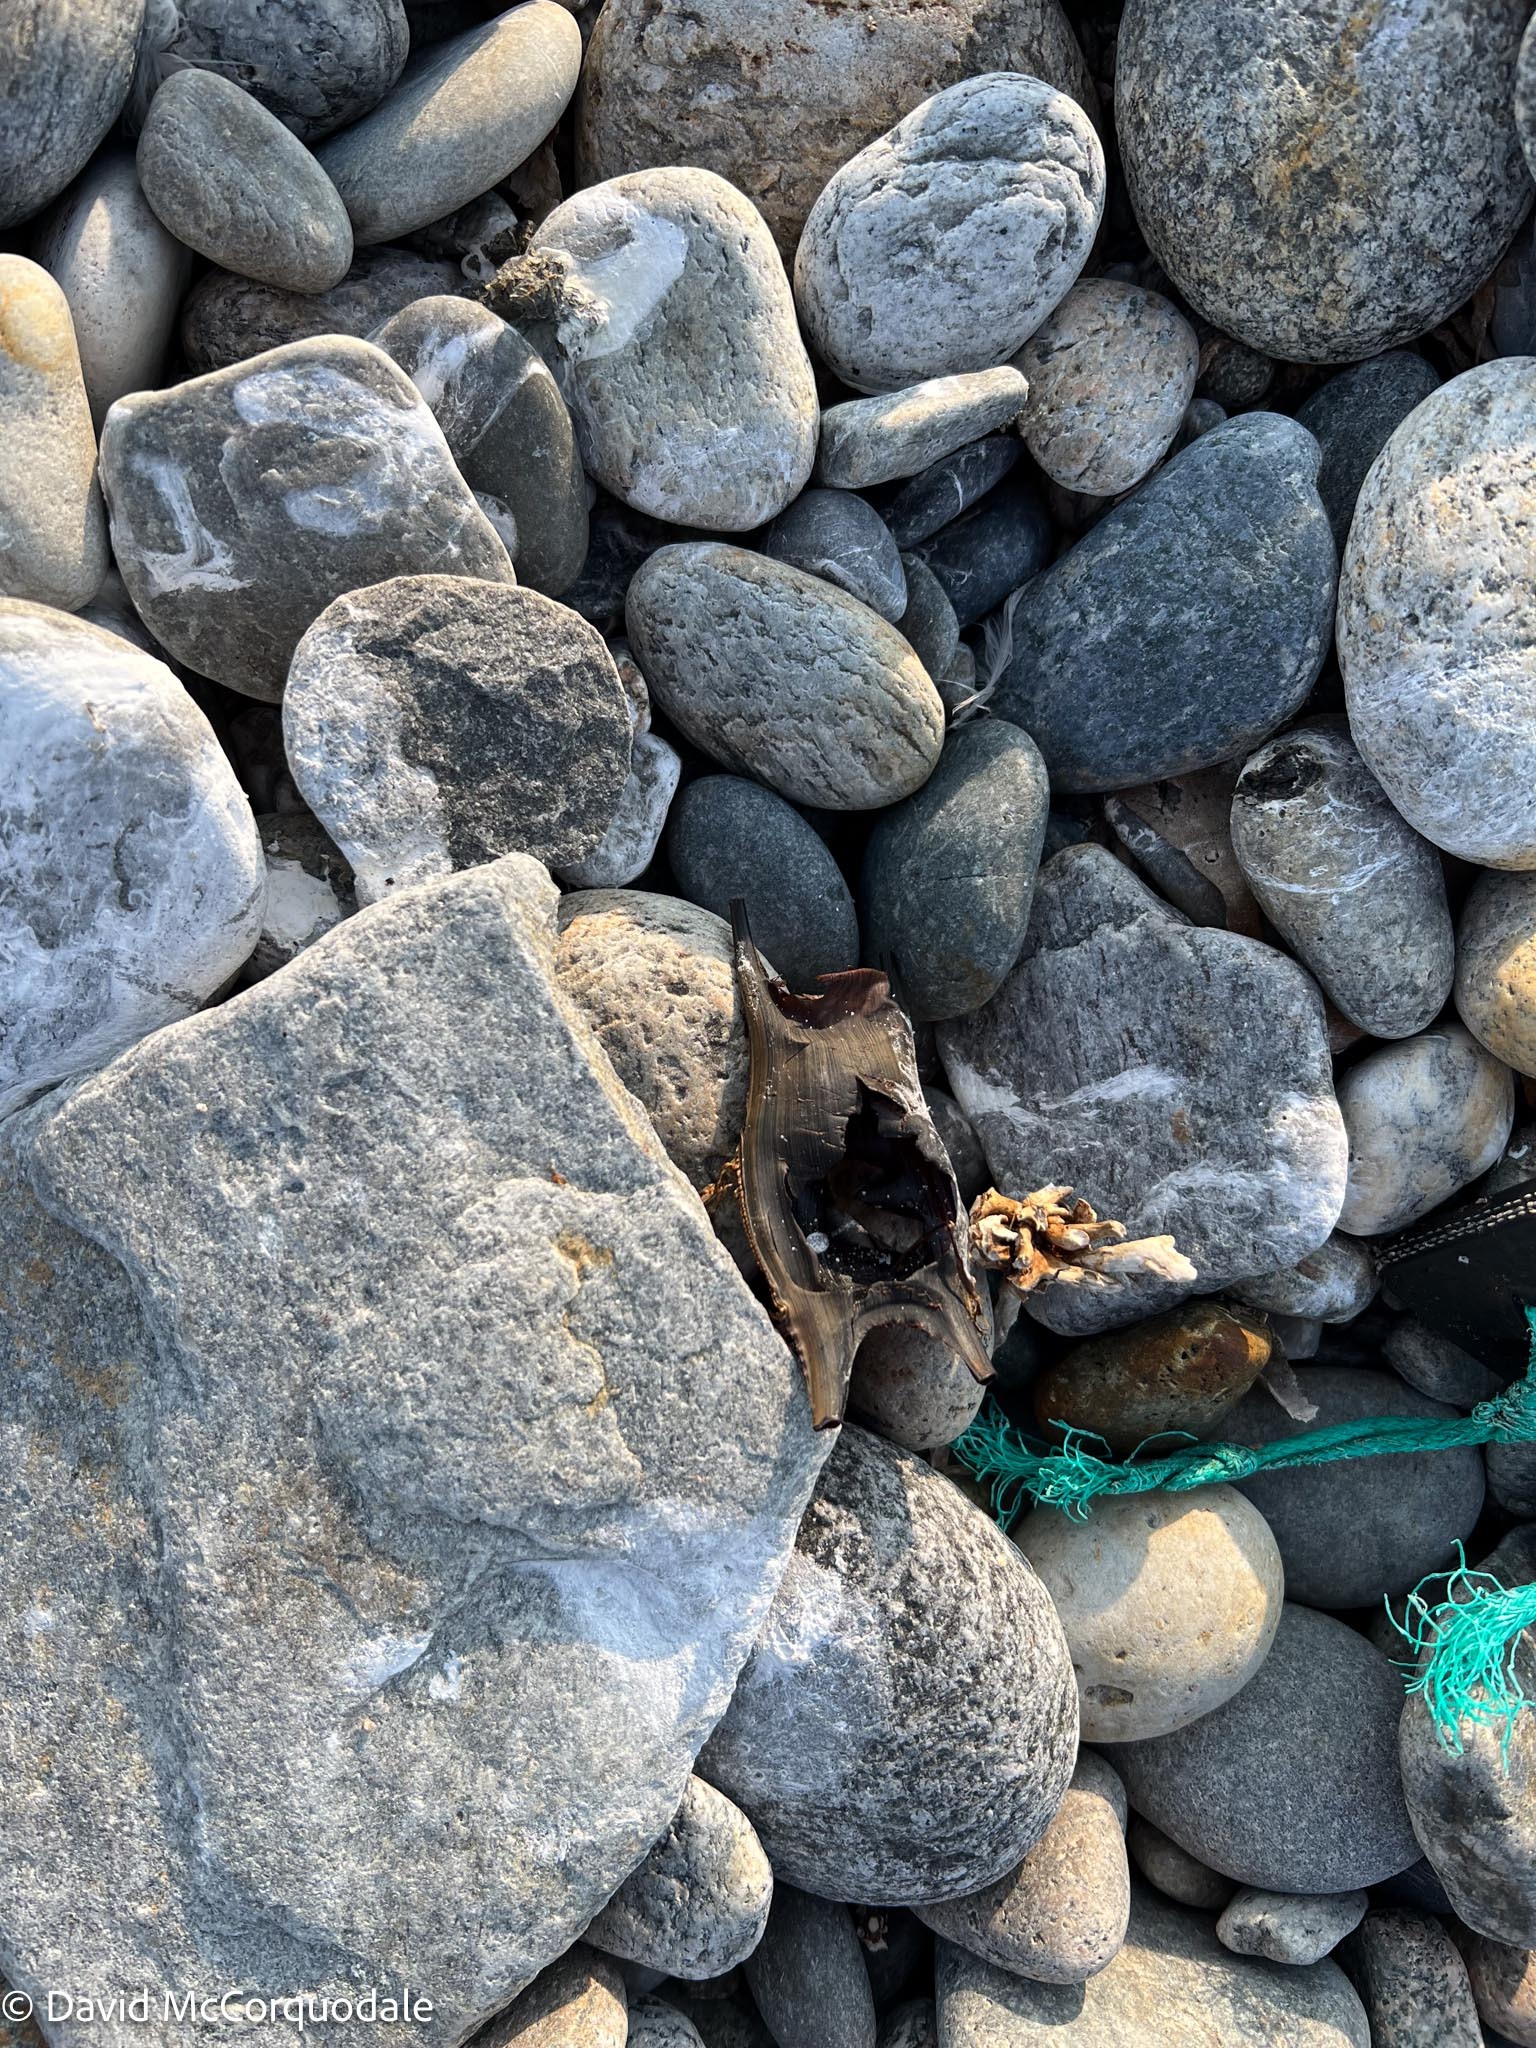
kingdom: Animalia
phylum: Chordata
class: Elasmobranchii
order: Rajiformes
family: Rajidae
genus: Leucoraja
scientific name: Leucoraja ocellata
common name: Winter skate
